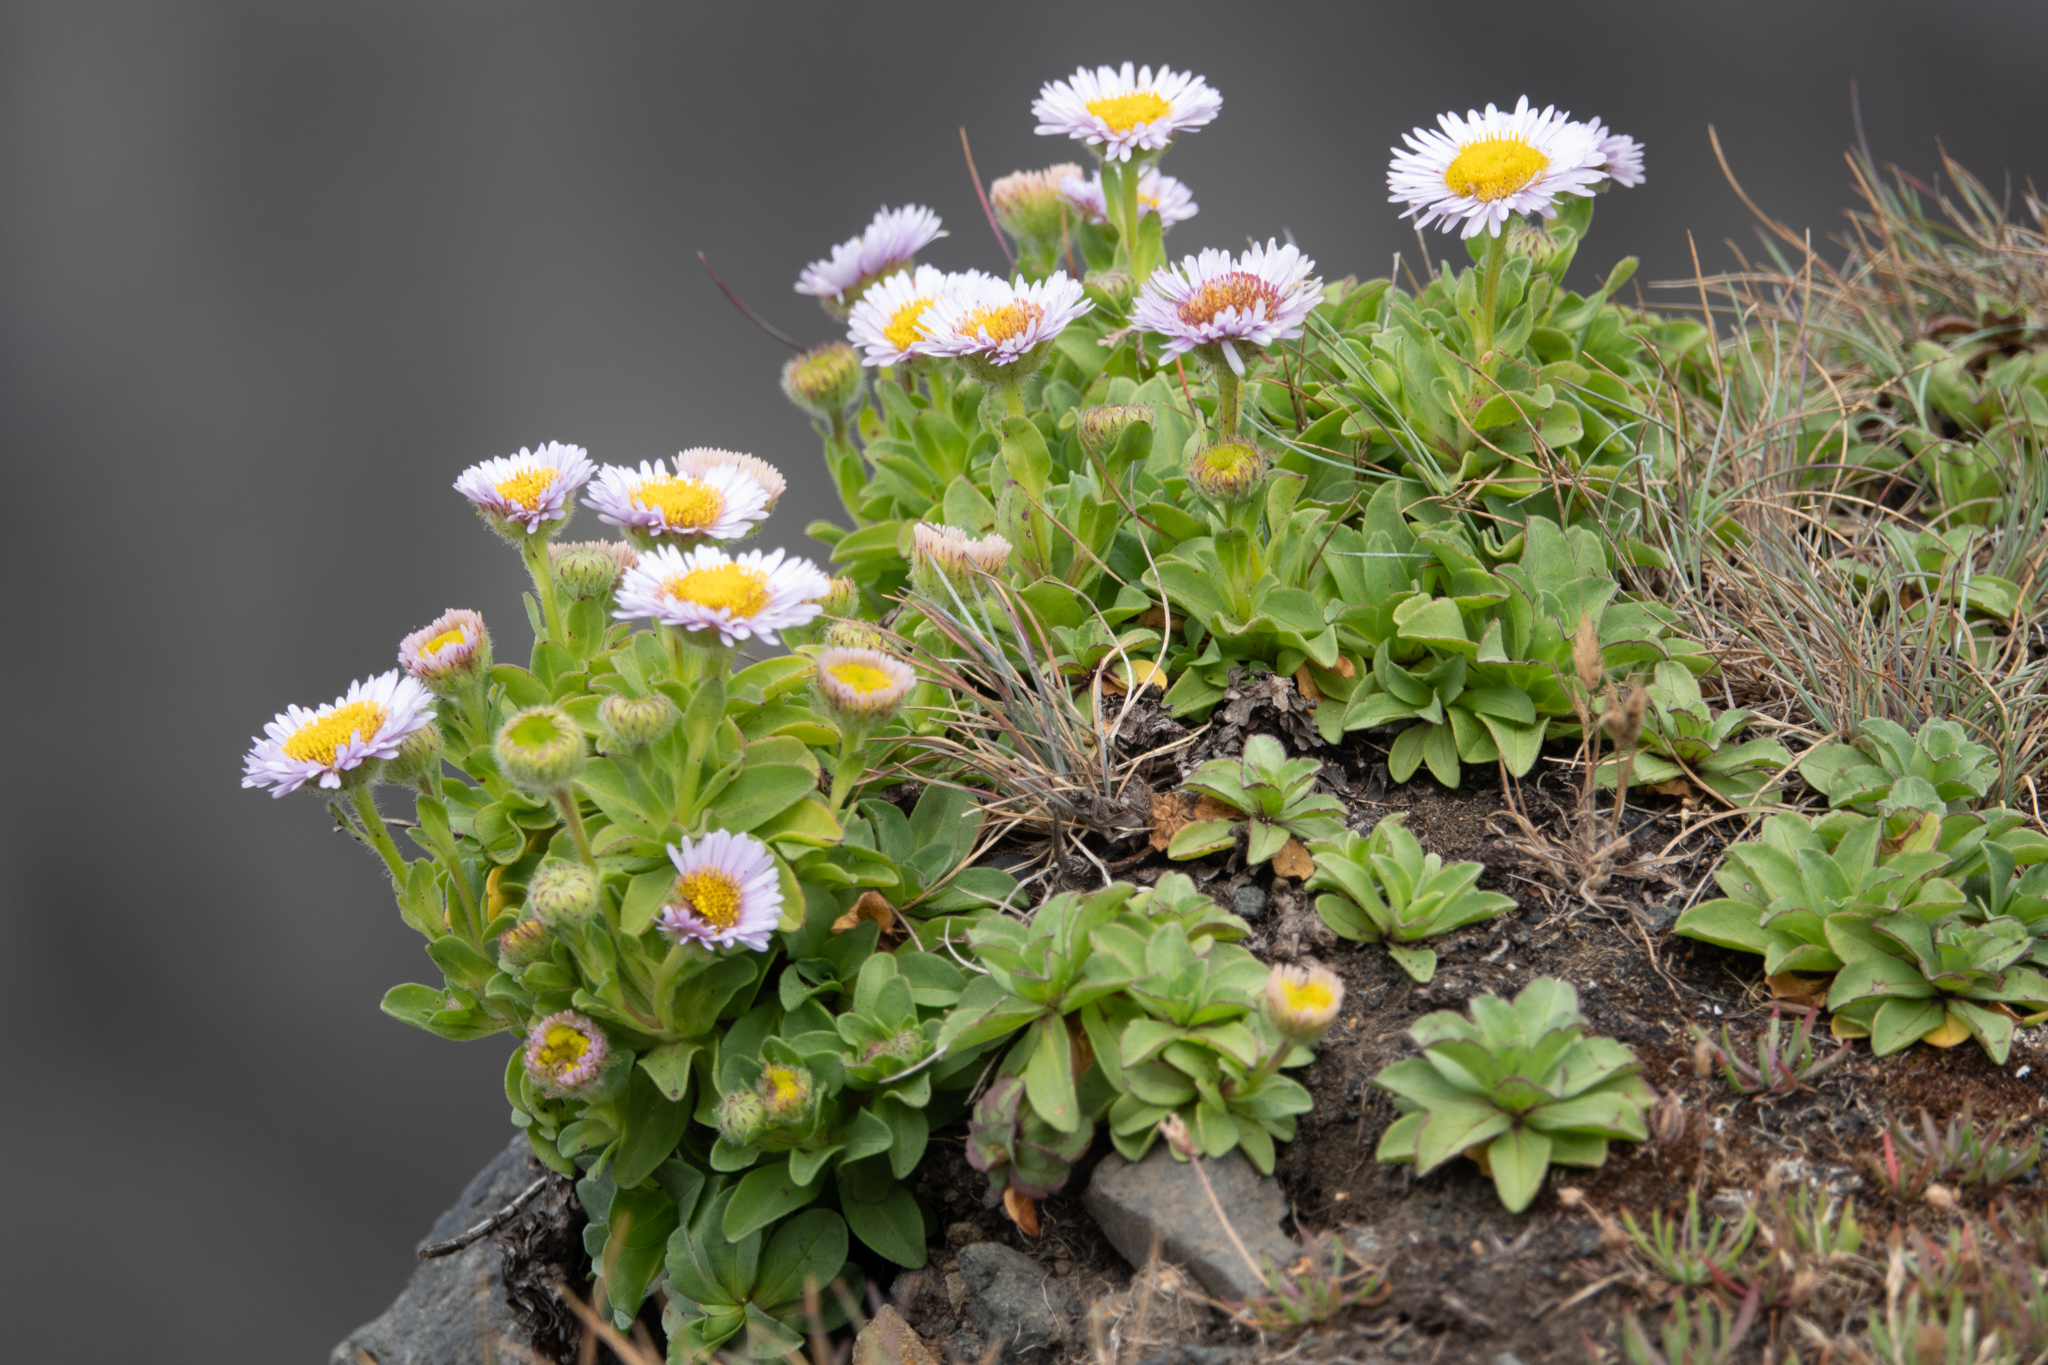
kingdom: Plantae
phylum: Tracheophyta
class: Magnoliopsida
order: Asterales
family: Asteraceae
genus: Erigeron
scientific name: Erigeron glaucus
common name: Seaside daisy
